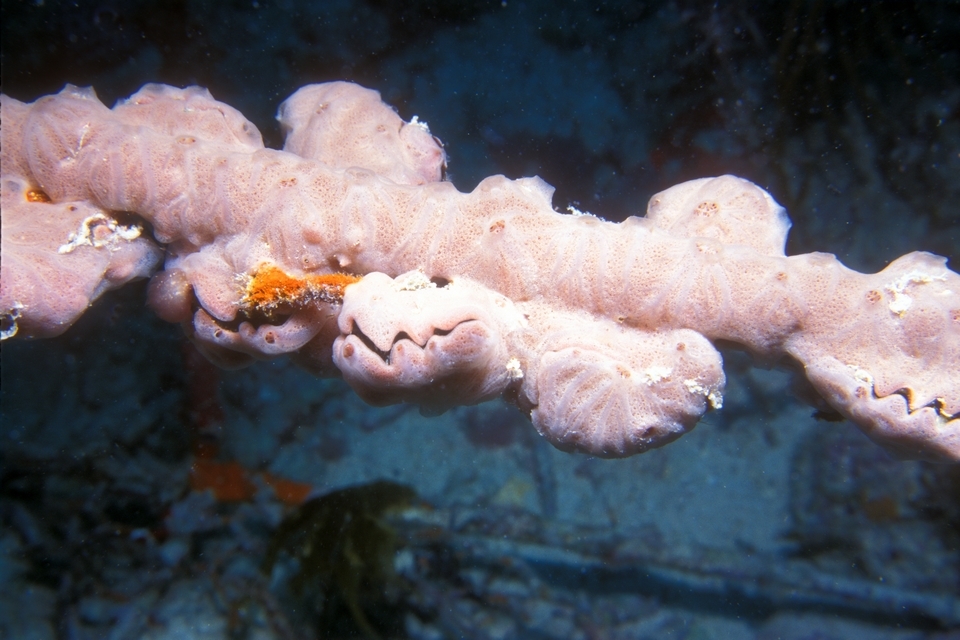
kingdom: Animalia
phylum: Mollusca
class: Bivalvia
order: Ostreida
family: Ostreidae
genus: Dendostrea
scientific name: Dendostrea frons
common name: Frond oyster
